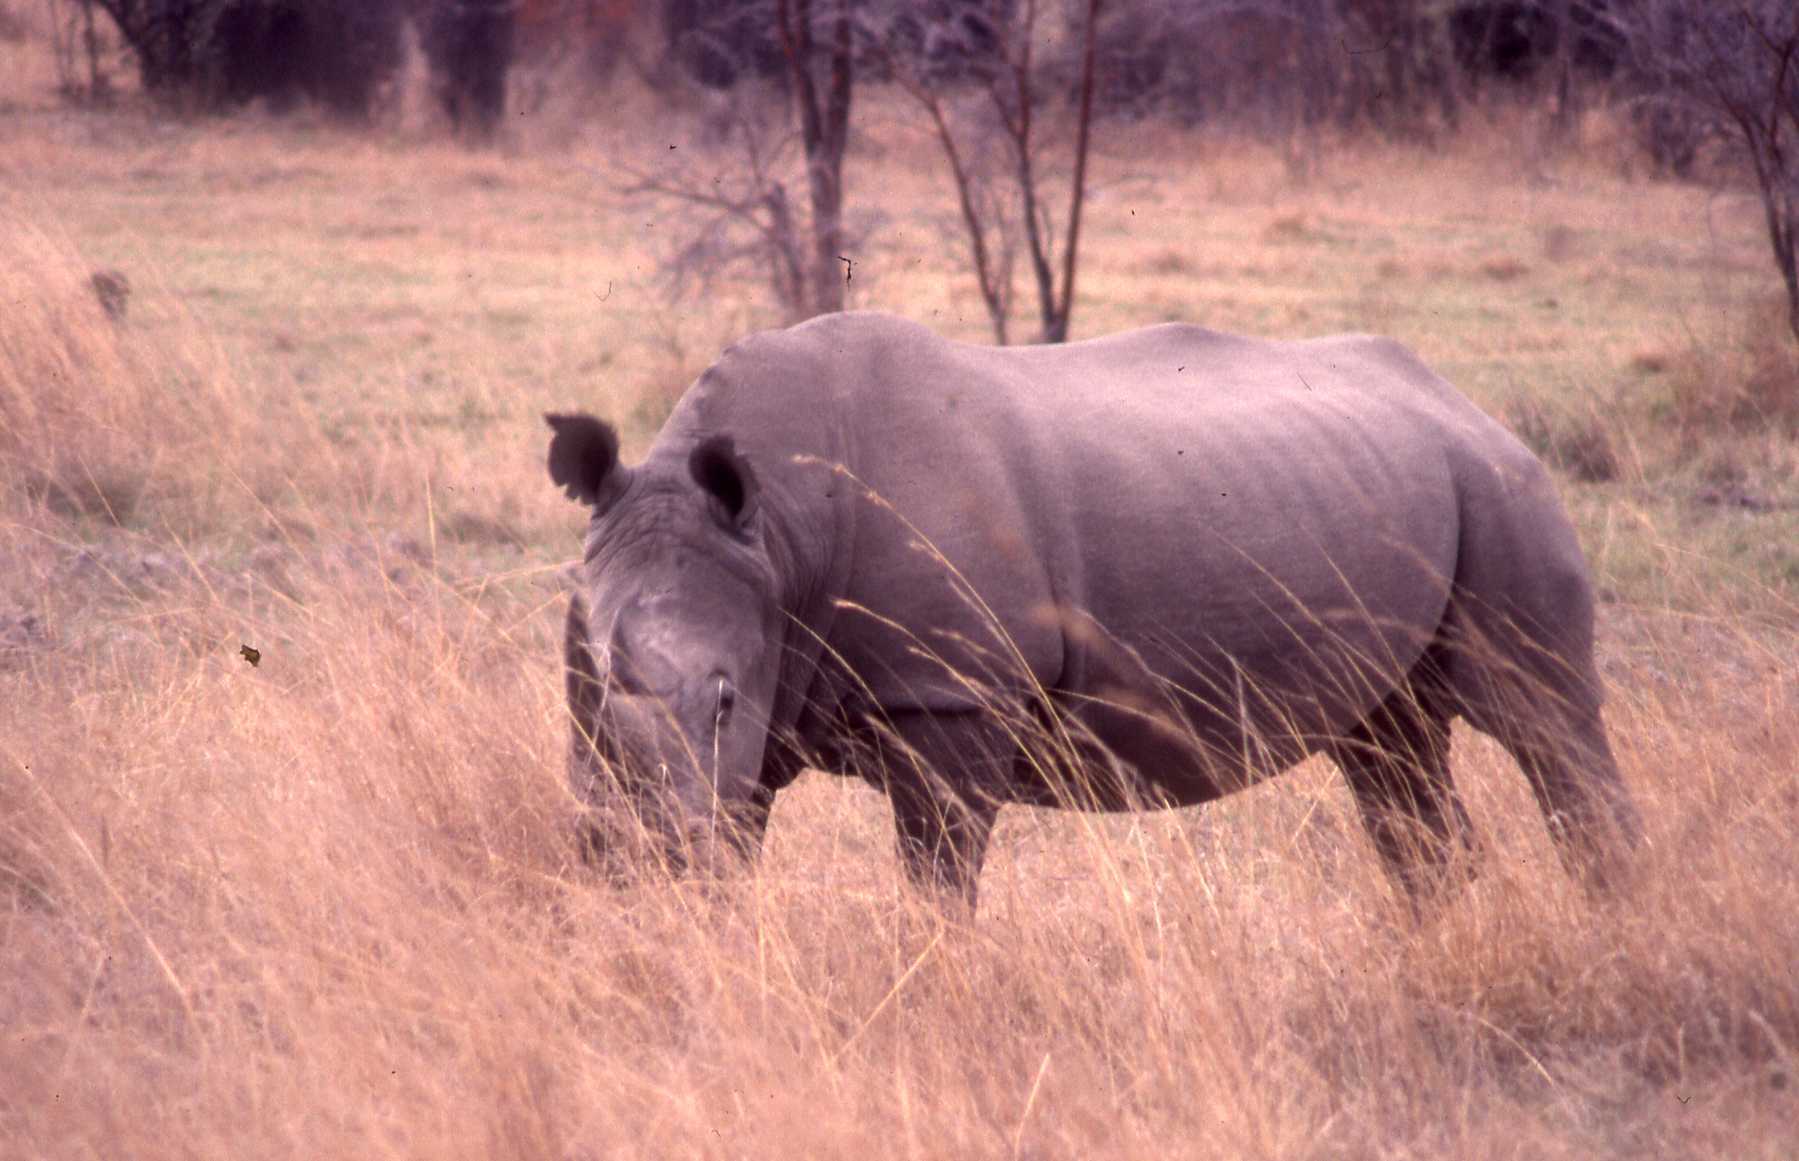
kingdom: Animalia
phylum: Chordata
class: Mammalia
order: Perissodactyla
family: Rhinocerotidae
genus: Ceratotherium
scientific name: Ceratotherium simum
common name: White rhinoceros
